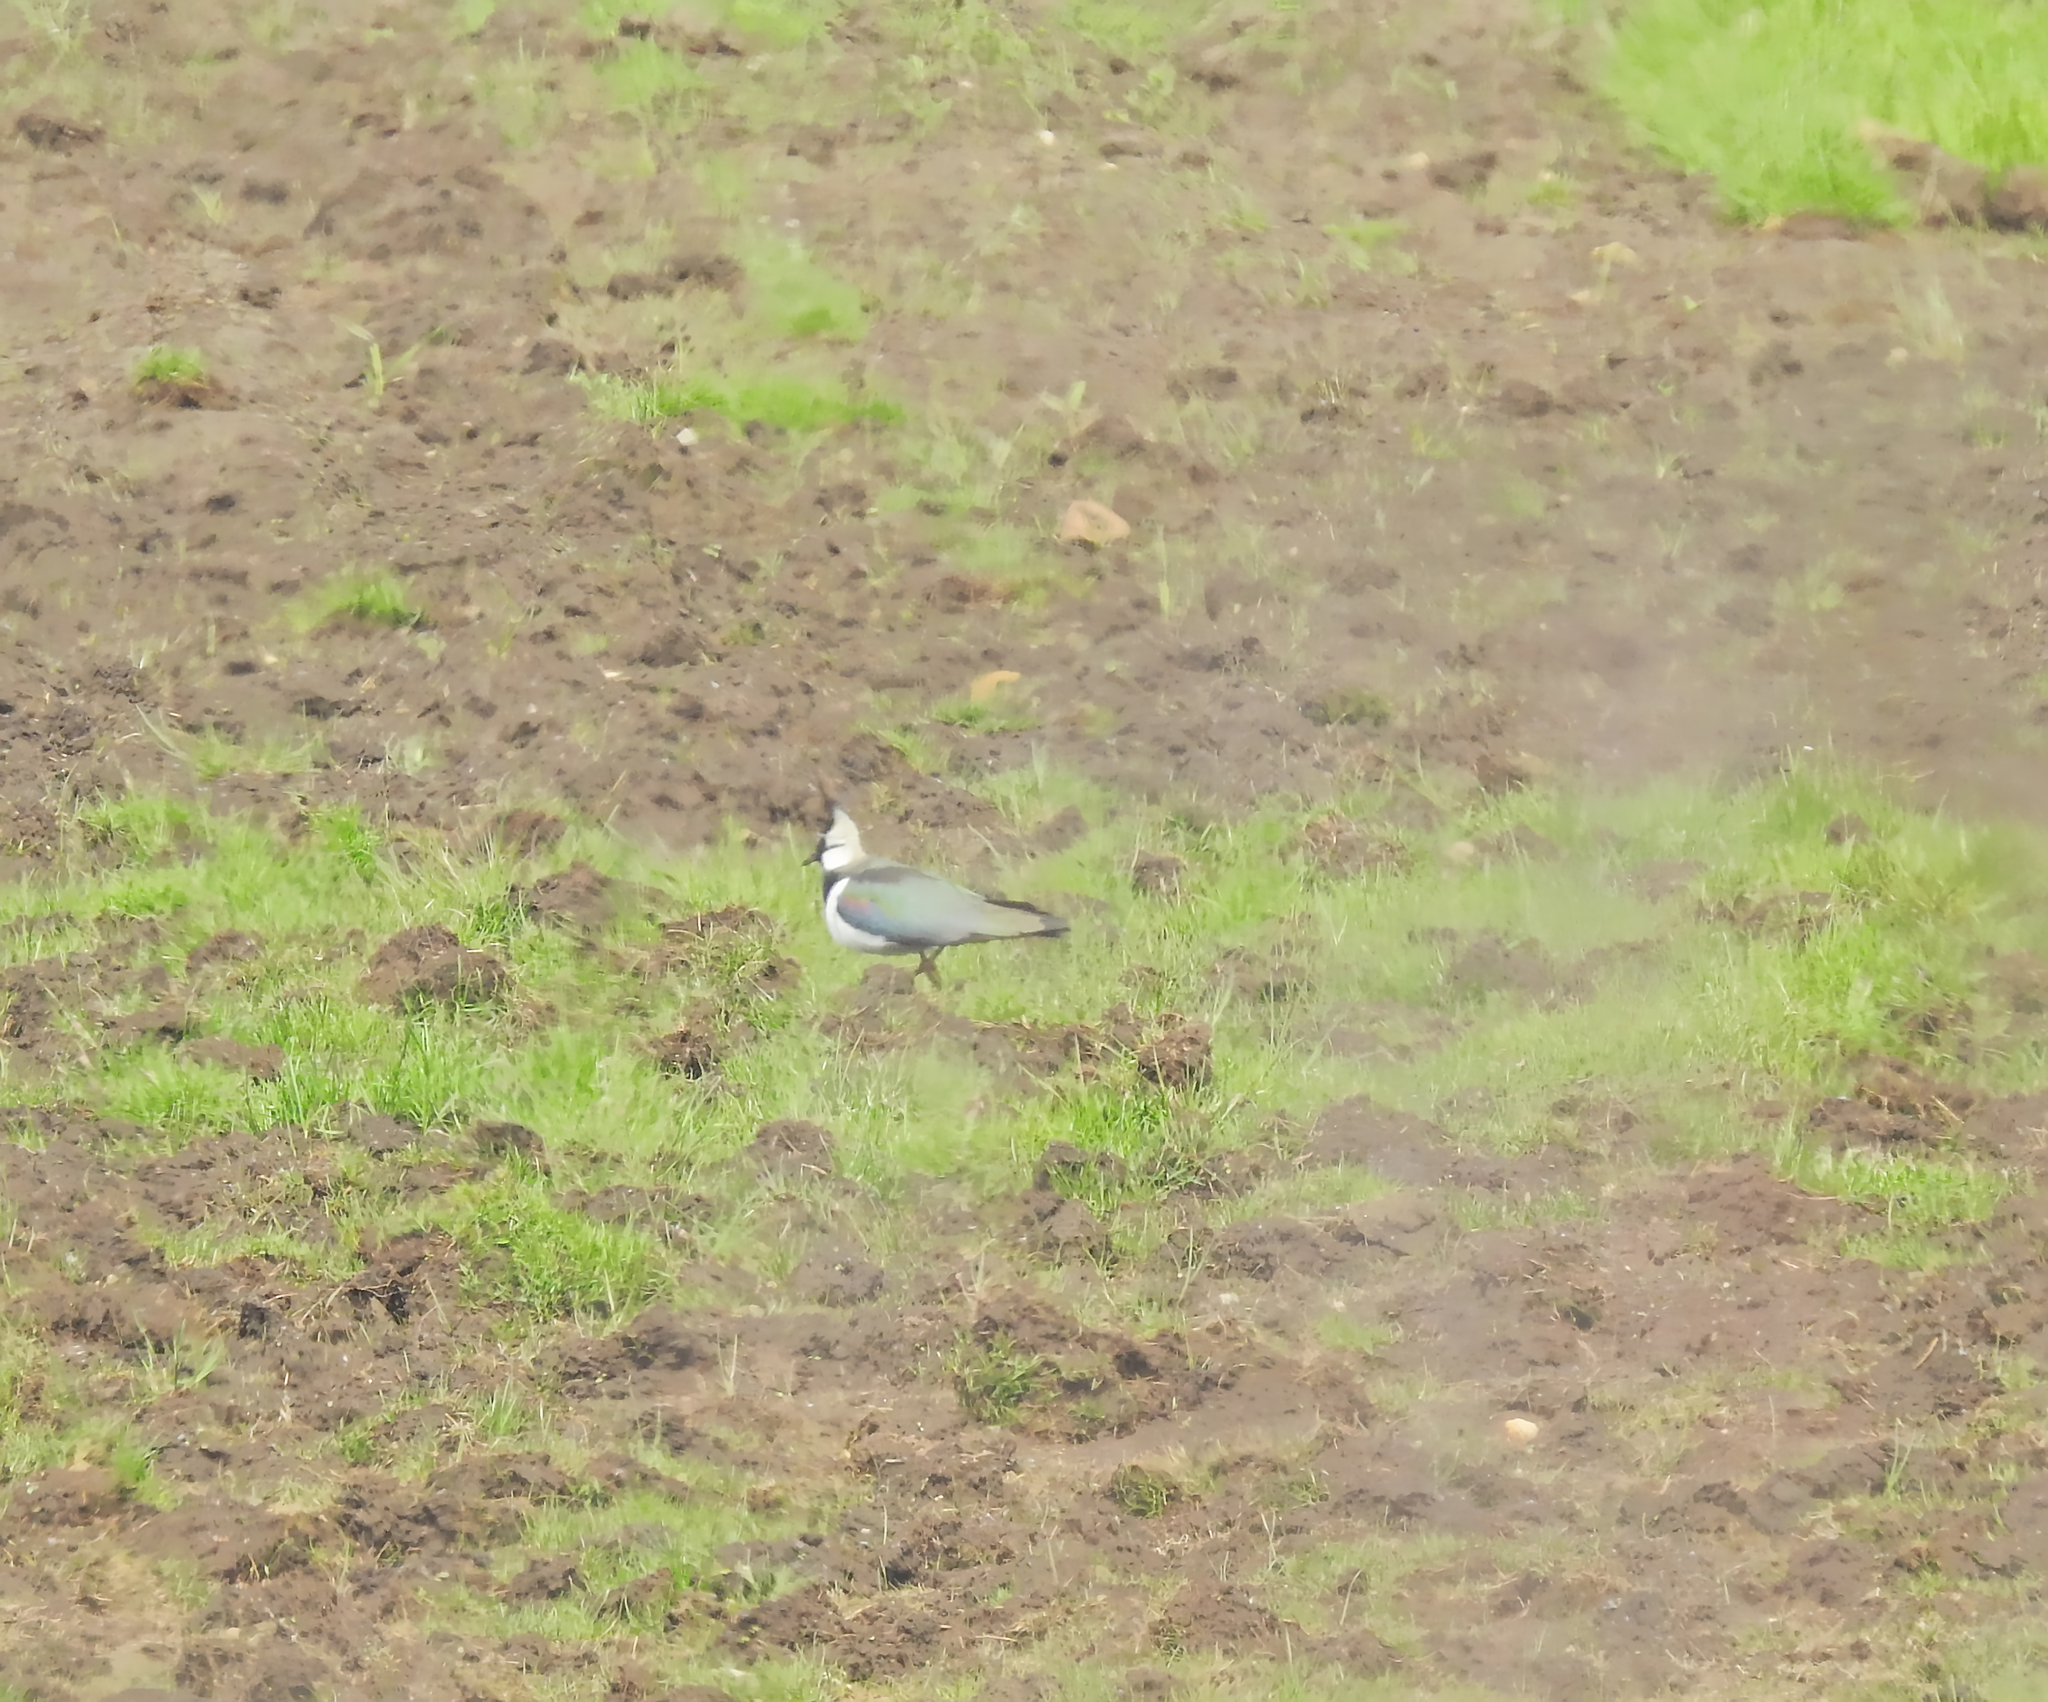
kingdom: Animalia
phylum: Chordata
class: Aves
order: Charadriiformes
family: Charadriidae
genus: Vanellus
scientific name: Vanellus vanellus
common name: Northern lapwing
